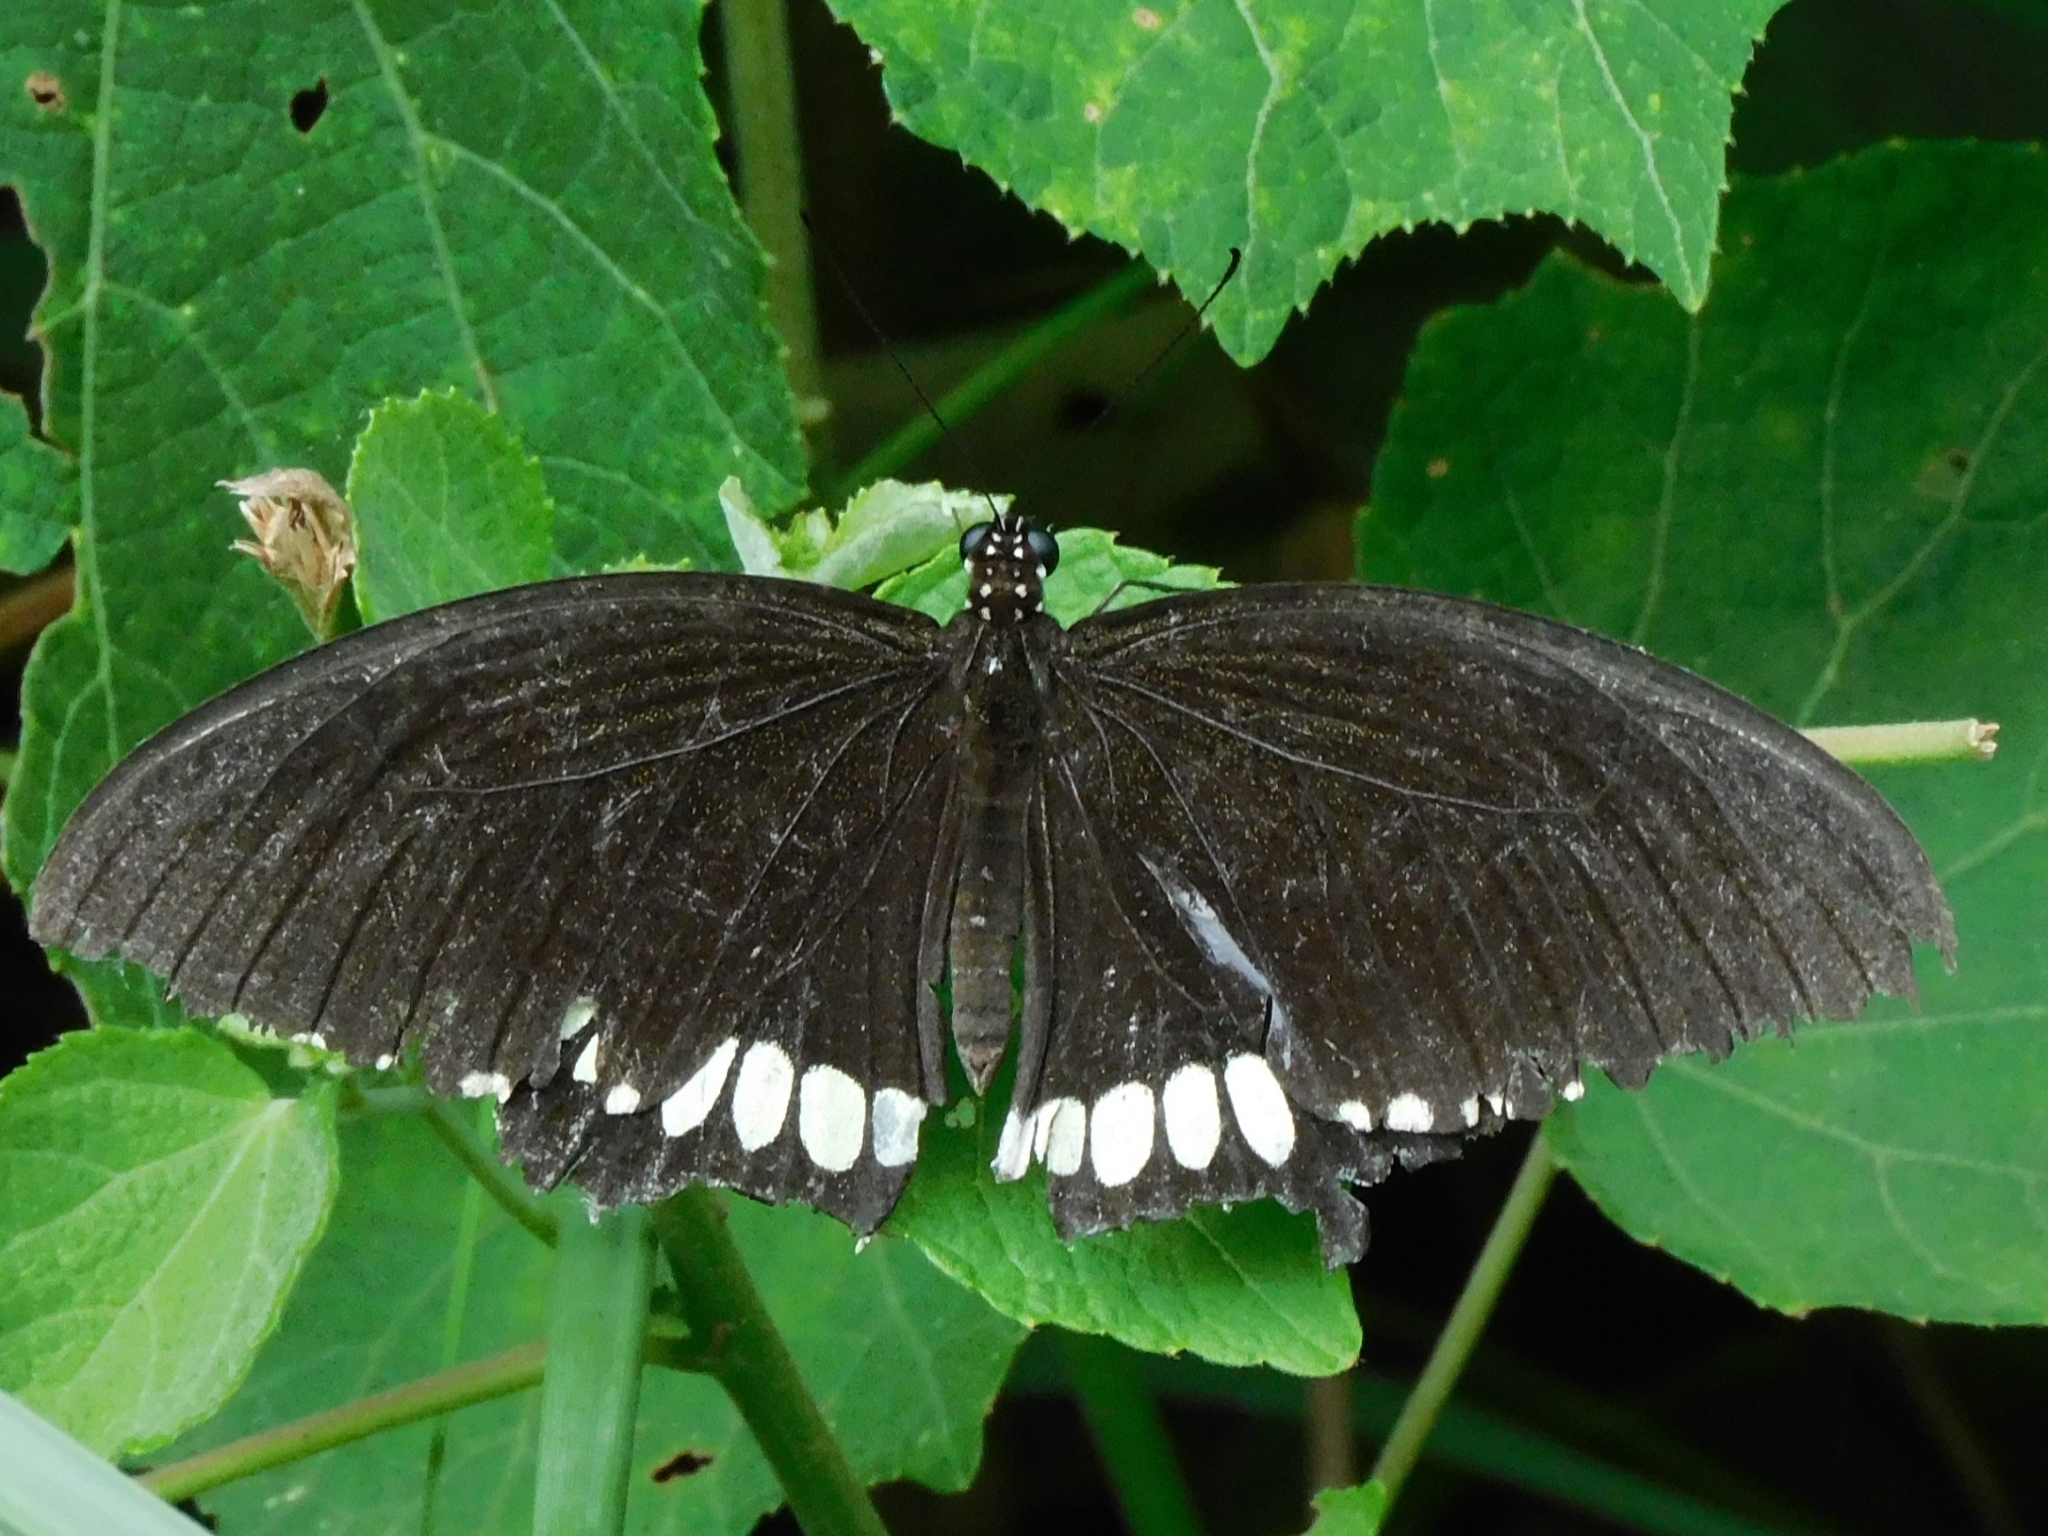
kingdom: Animalia
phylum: Arthropoda
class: Insecta
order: Lepidoptera
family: Papilionidae
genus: Papilio
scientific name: Papilio polytes
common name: Common mormon
